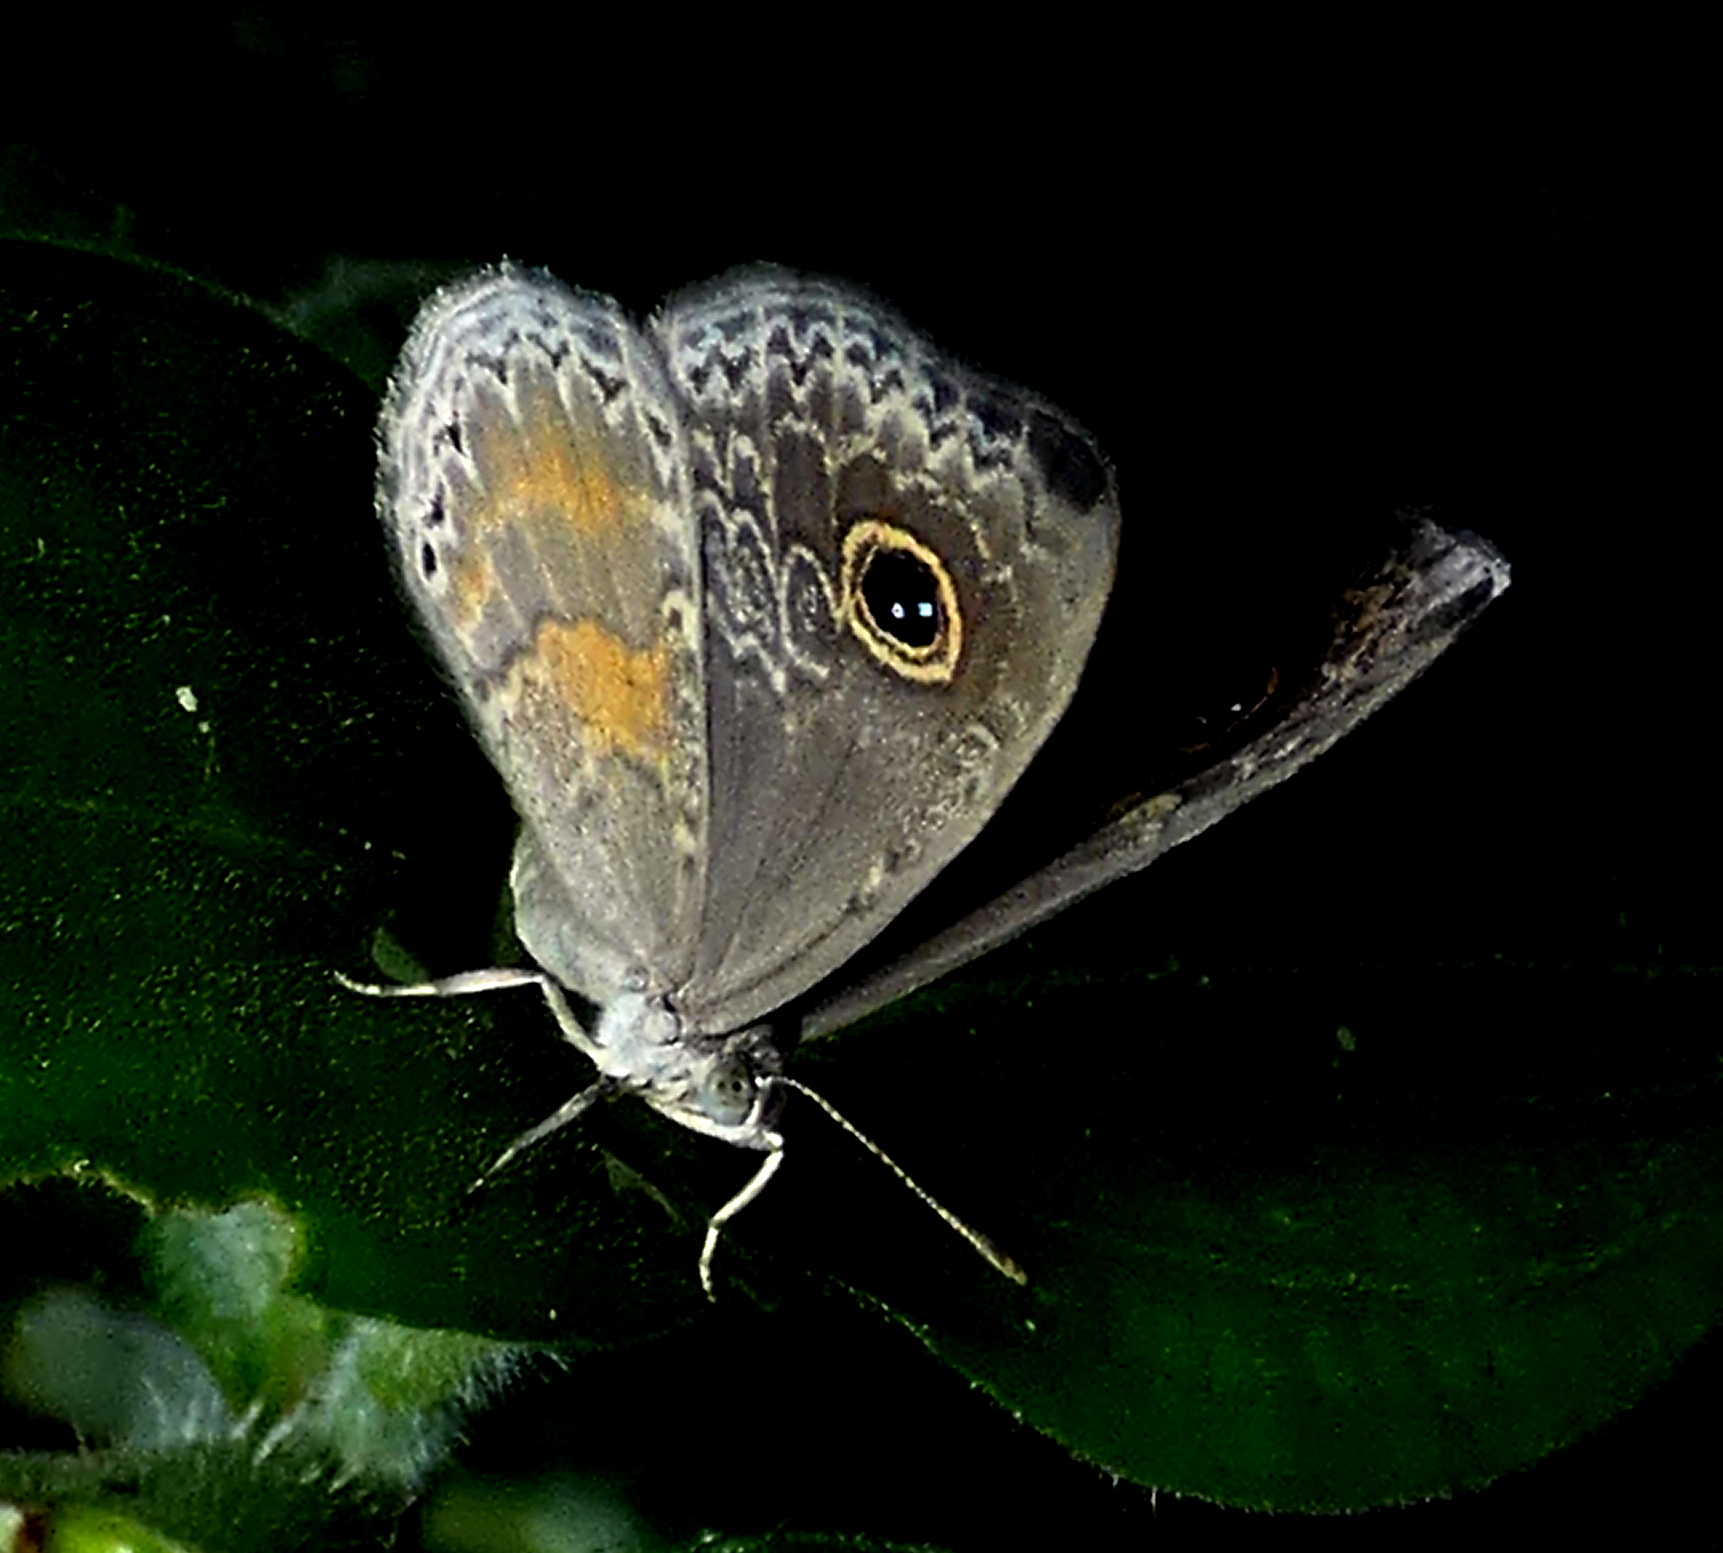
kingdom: Animalia
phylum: Arthropoda
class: Insecta
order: Lepidoptera
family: Riodinidae
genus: Perophthalma
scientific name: Perophthalma tullius
